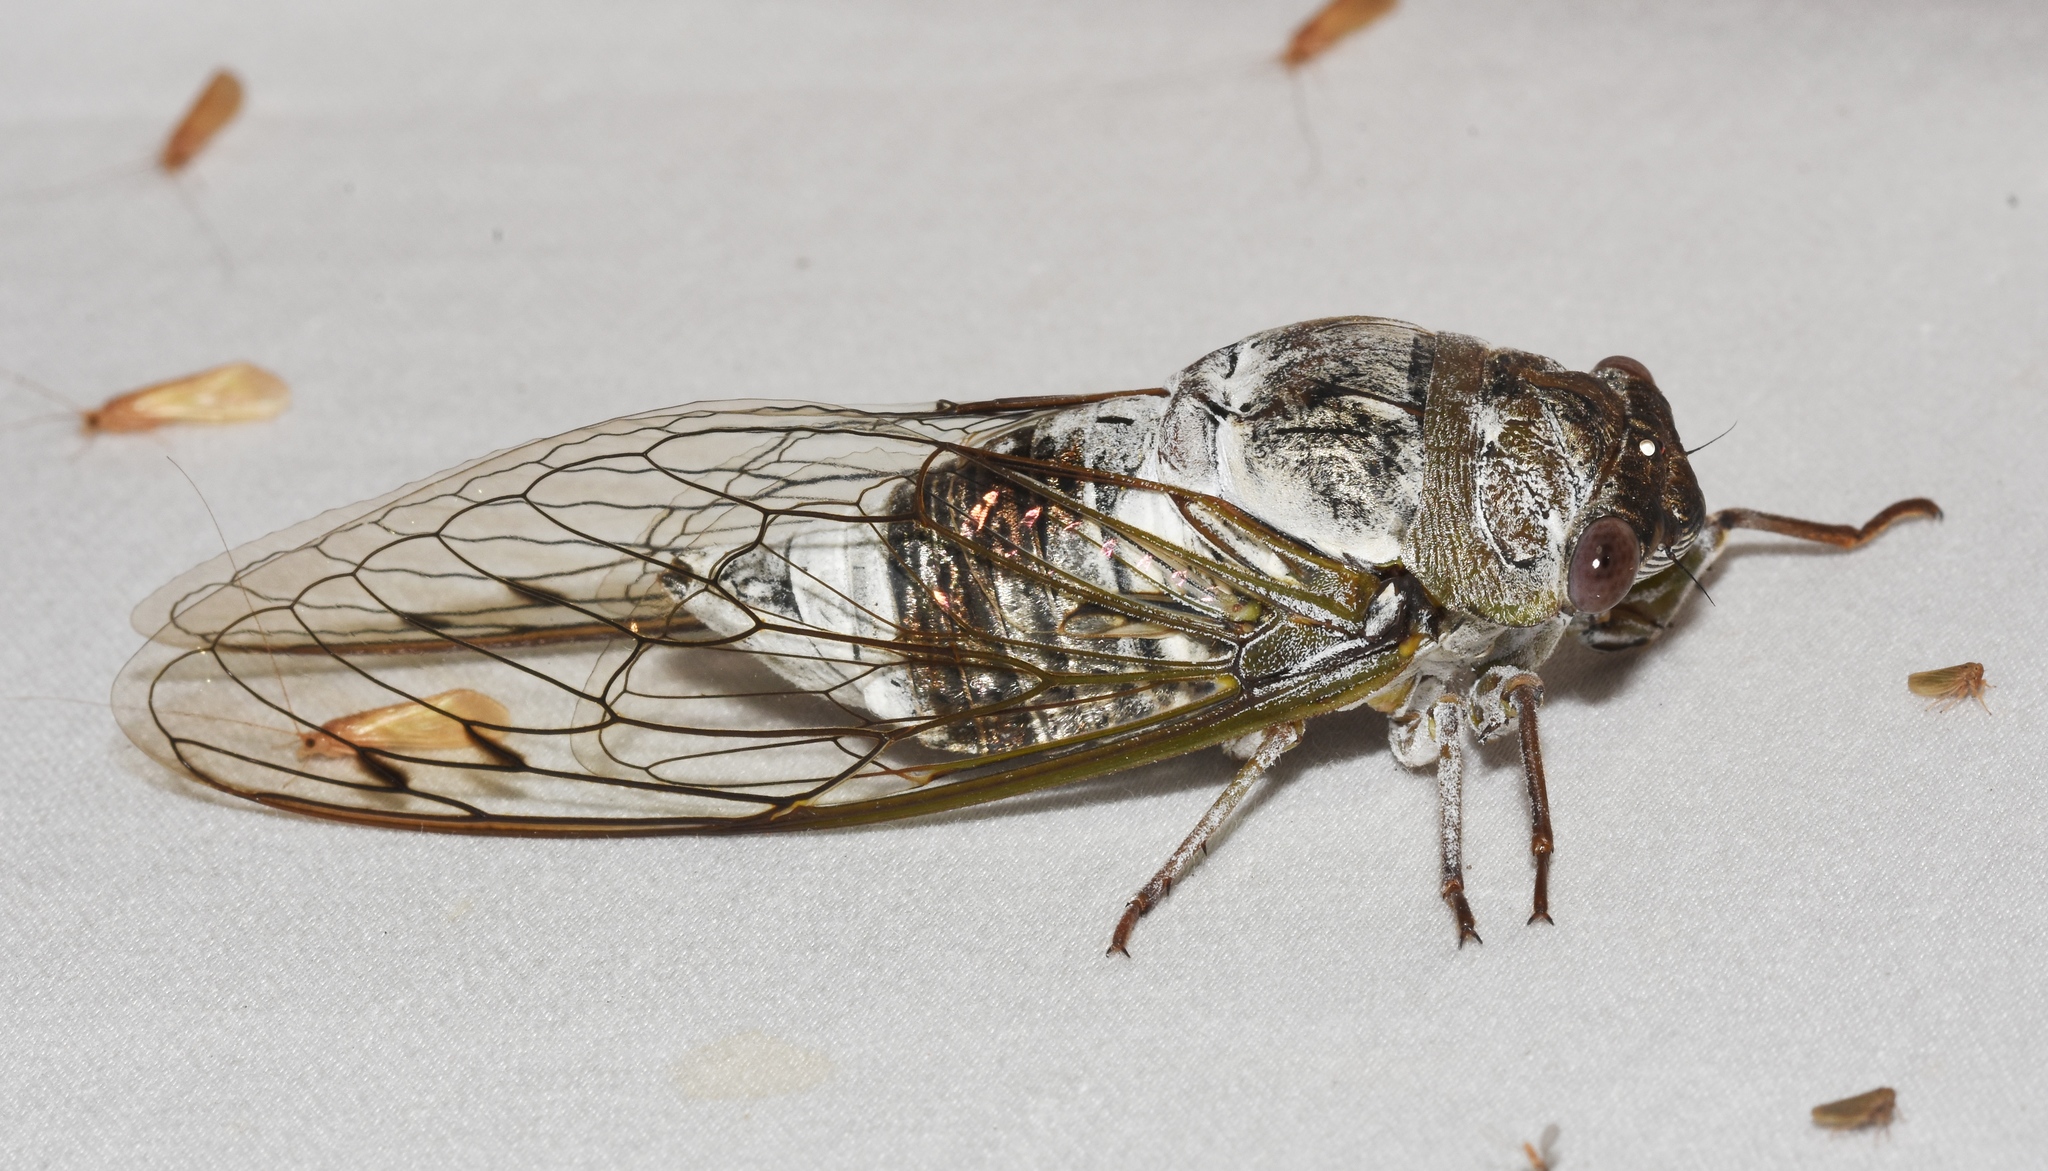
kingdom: Animalia
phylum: Arthropoda
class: Insecta
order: Hemiptera
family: Cicadidae
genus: Diceroprocta
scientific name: Diceroprocta grossa
